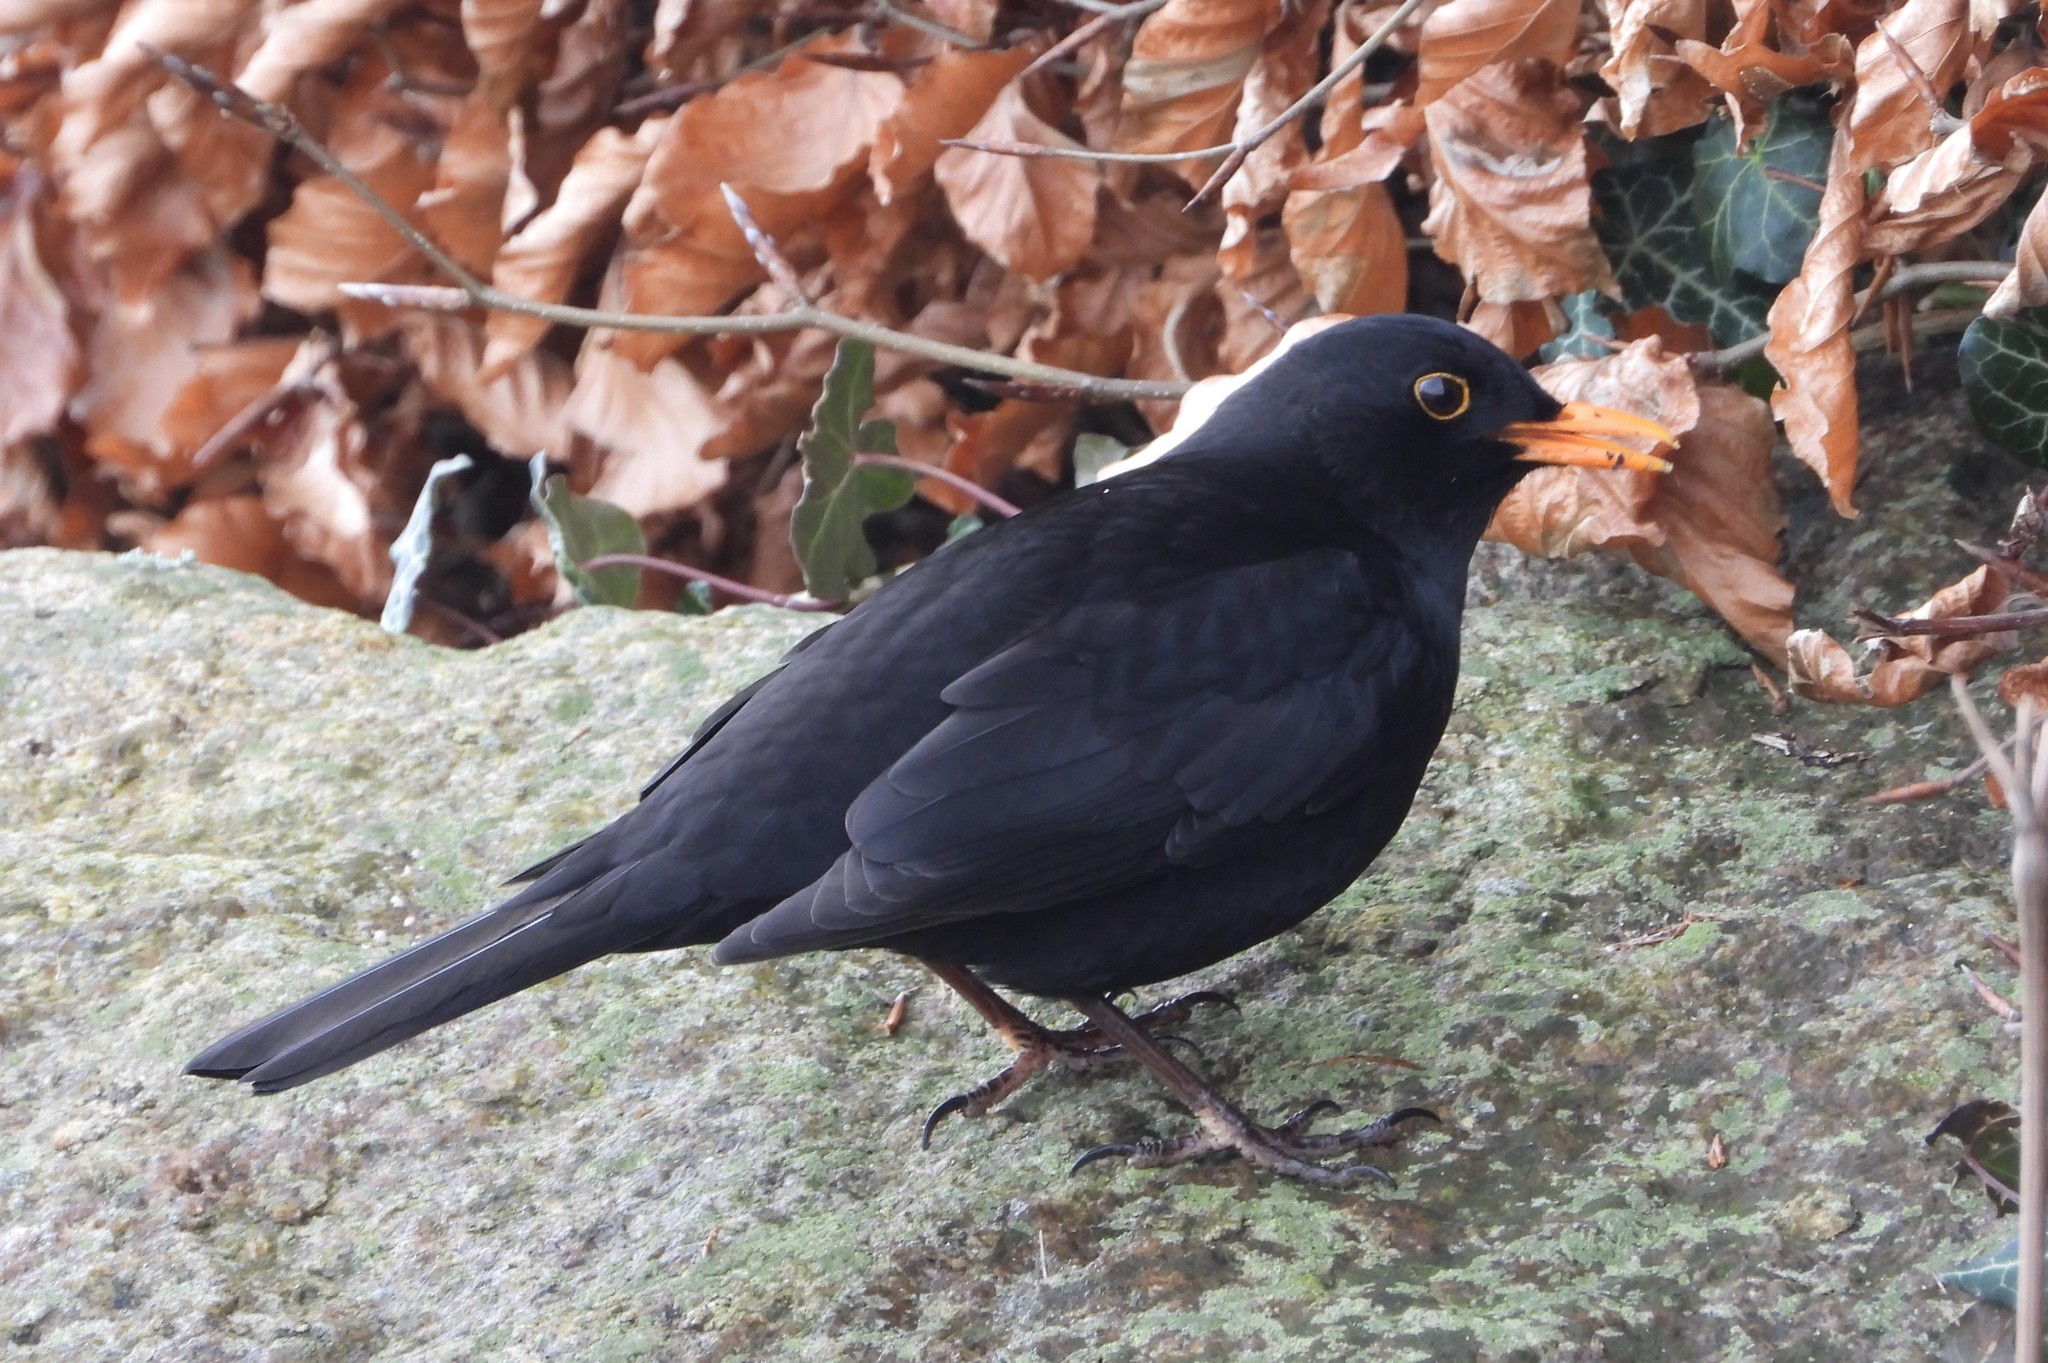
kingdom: Animalia
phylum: Chordata
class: Aves
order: Passeriformes
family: Turdidae
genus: Turdus
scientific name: Turdus merula
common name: Common blackbird
